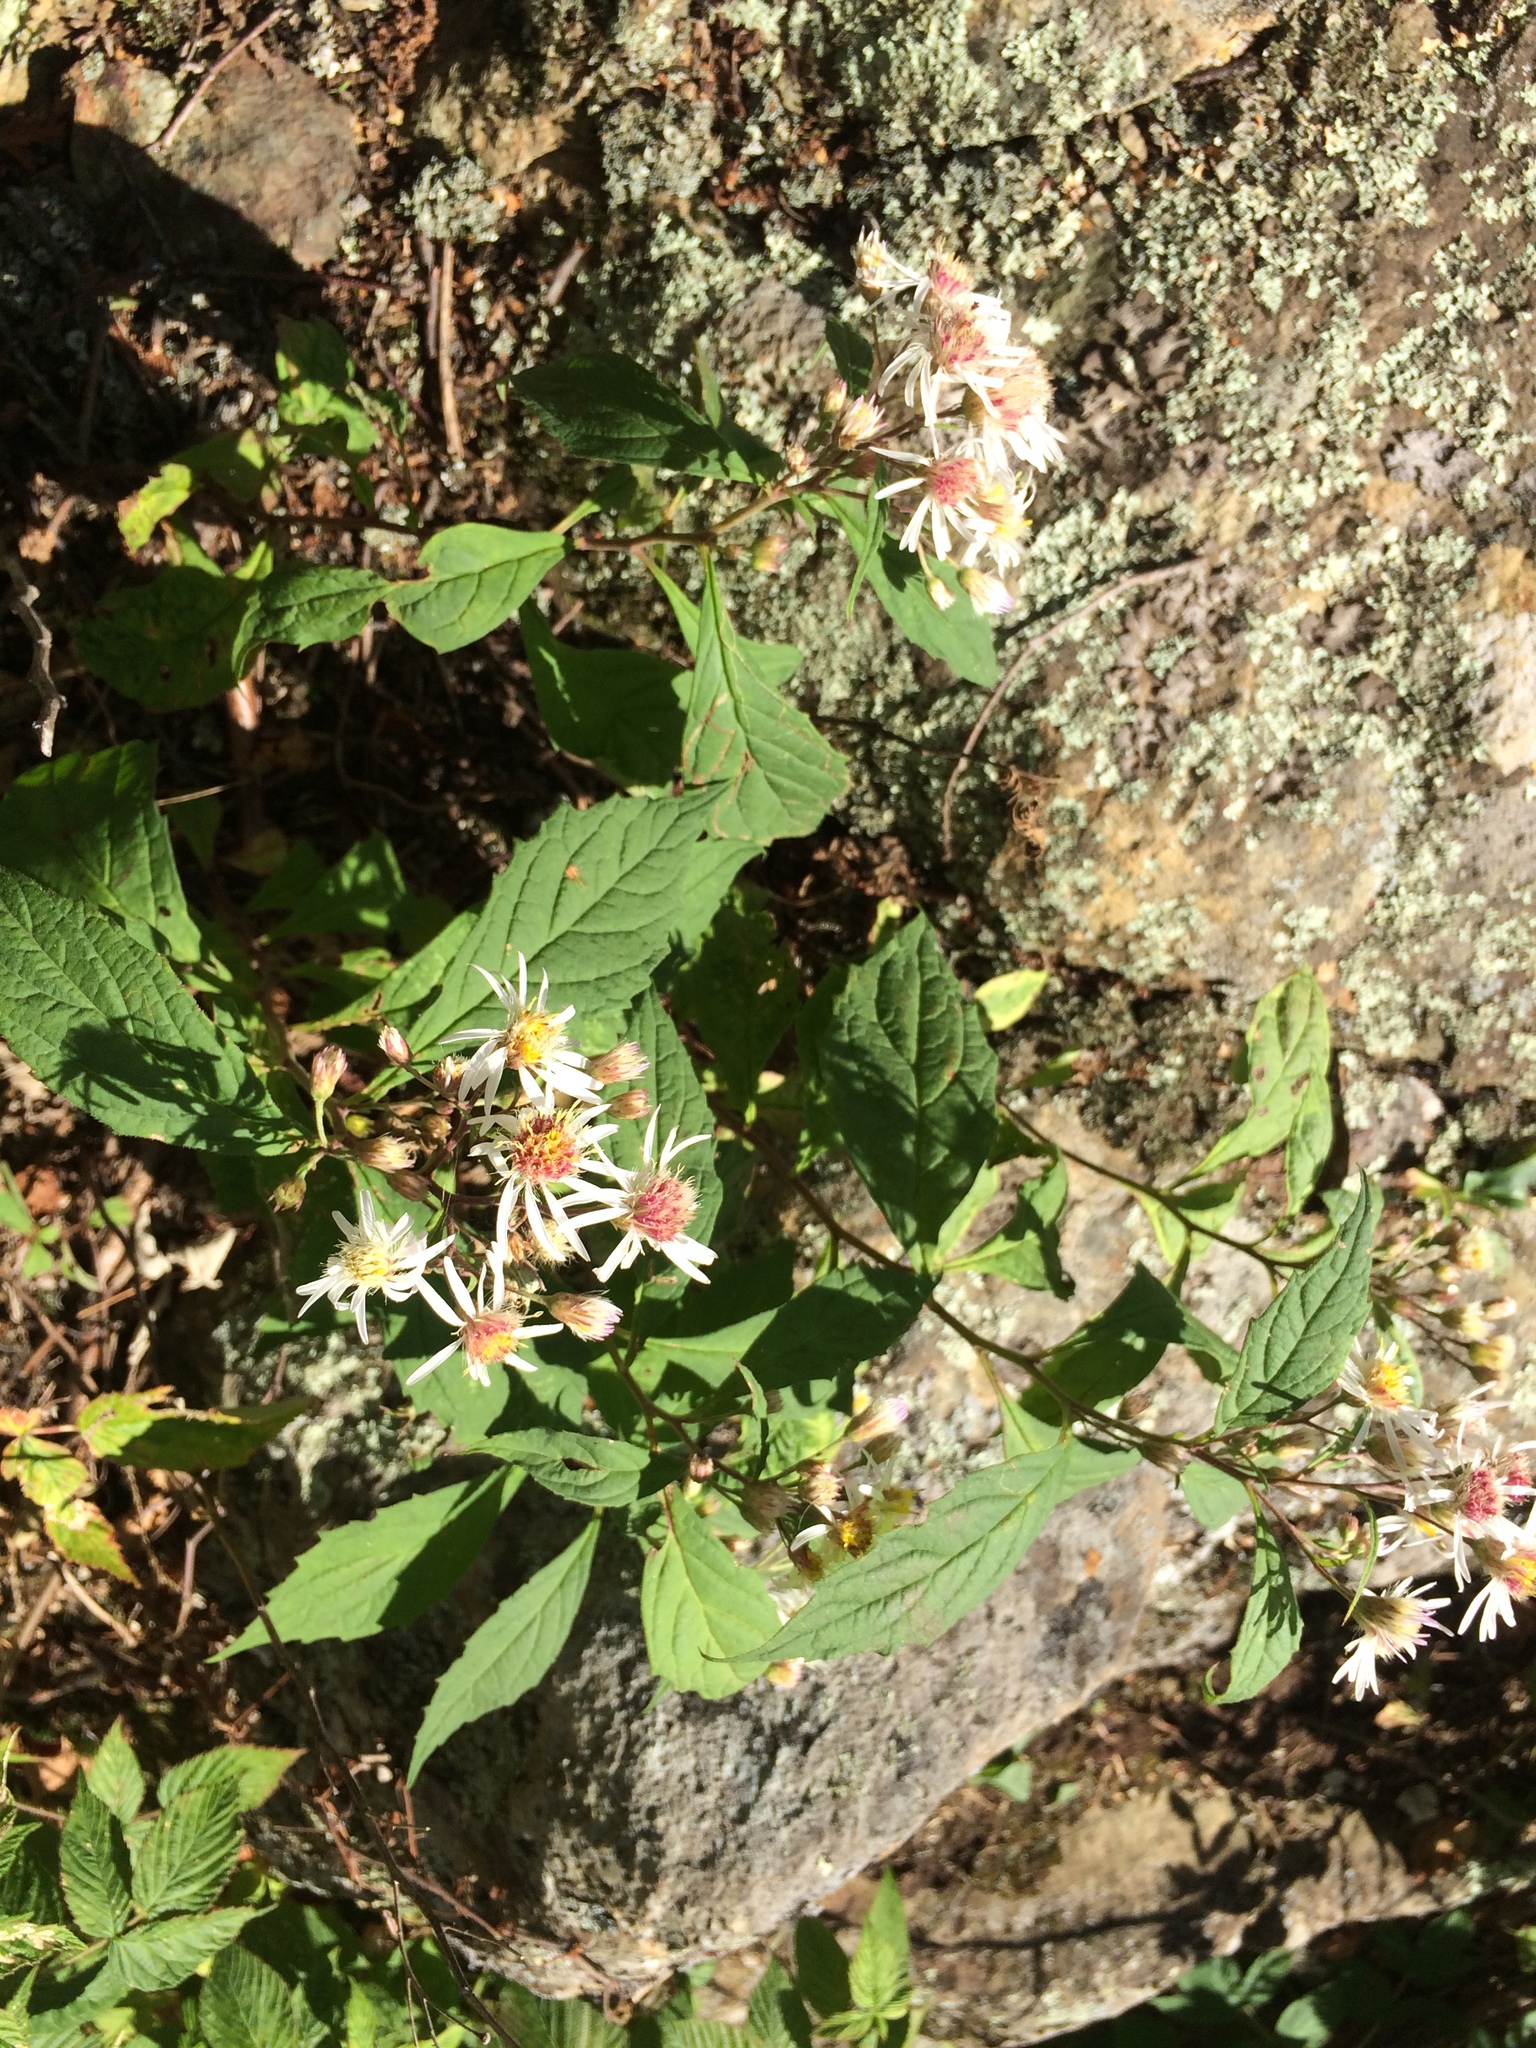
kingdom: Plantae
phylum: Tracheophyta
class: Magnoliopsida
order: Asterales
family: Asteraceae
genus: Oclemena
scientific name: Oclemena acuminata
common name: Mountain aster
